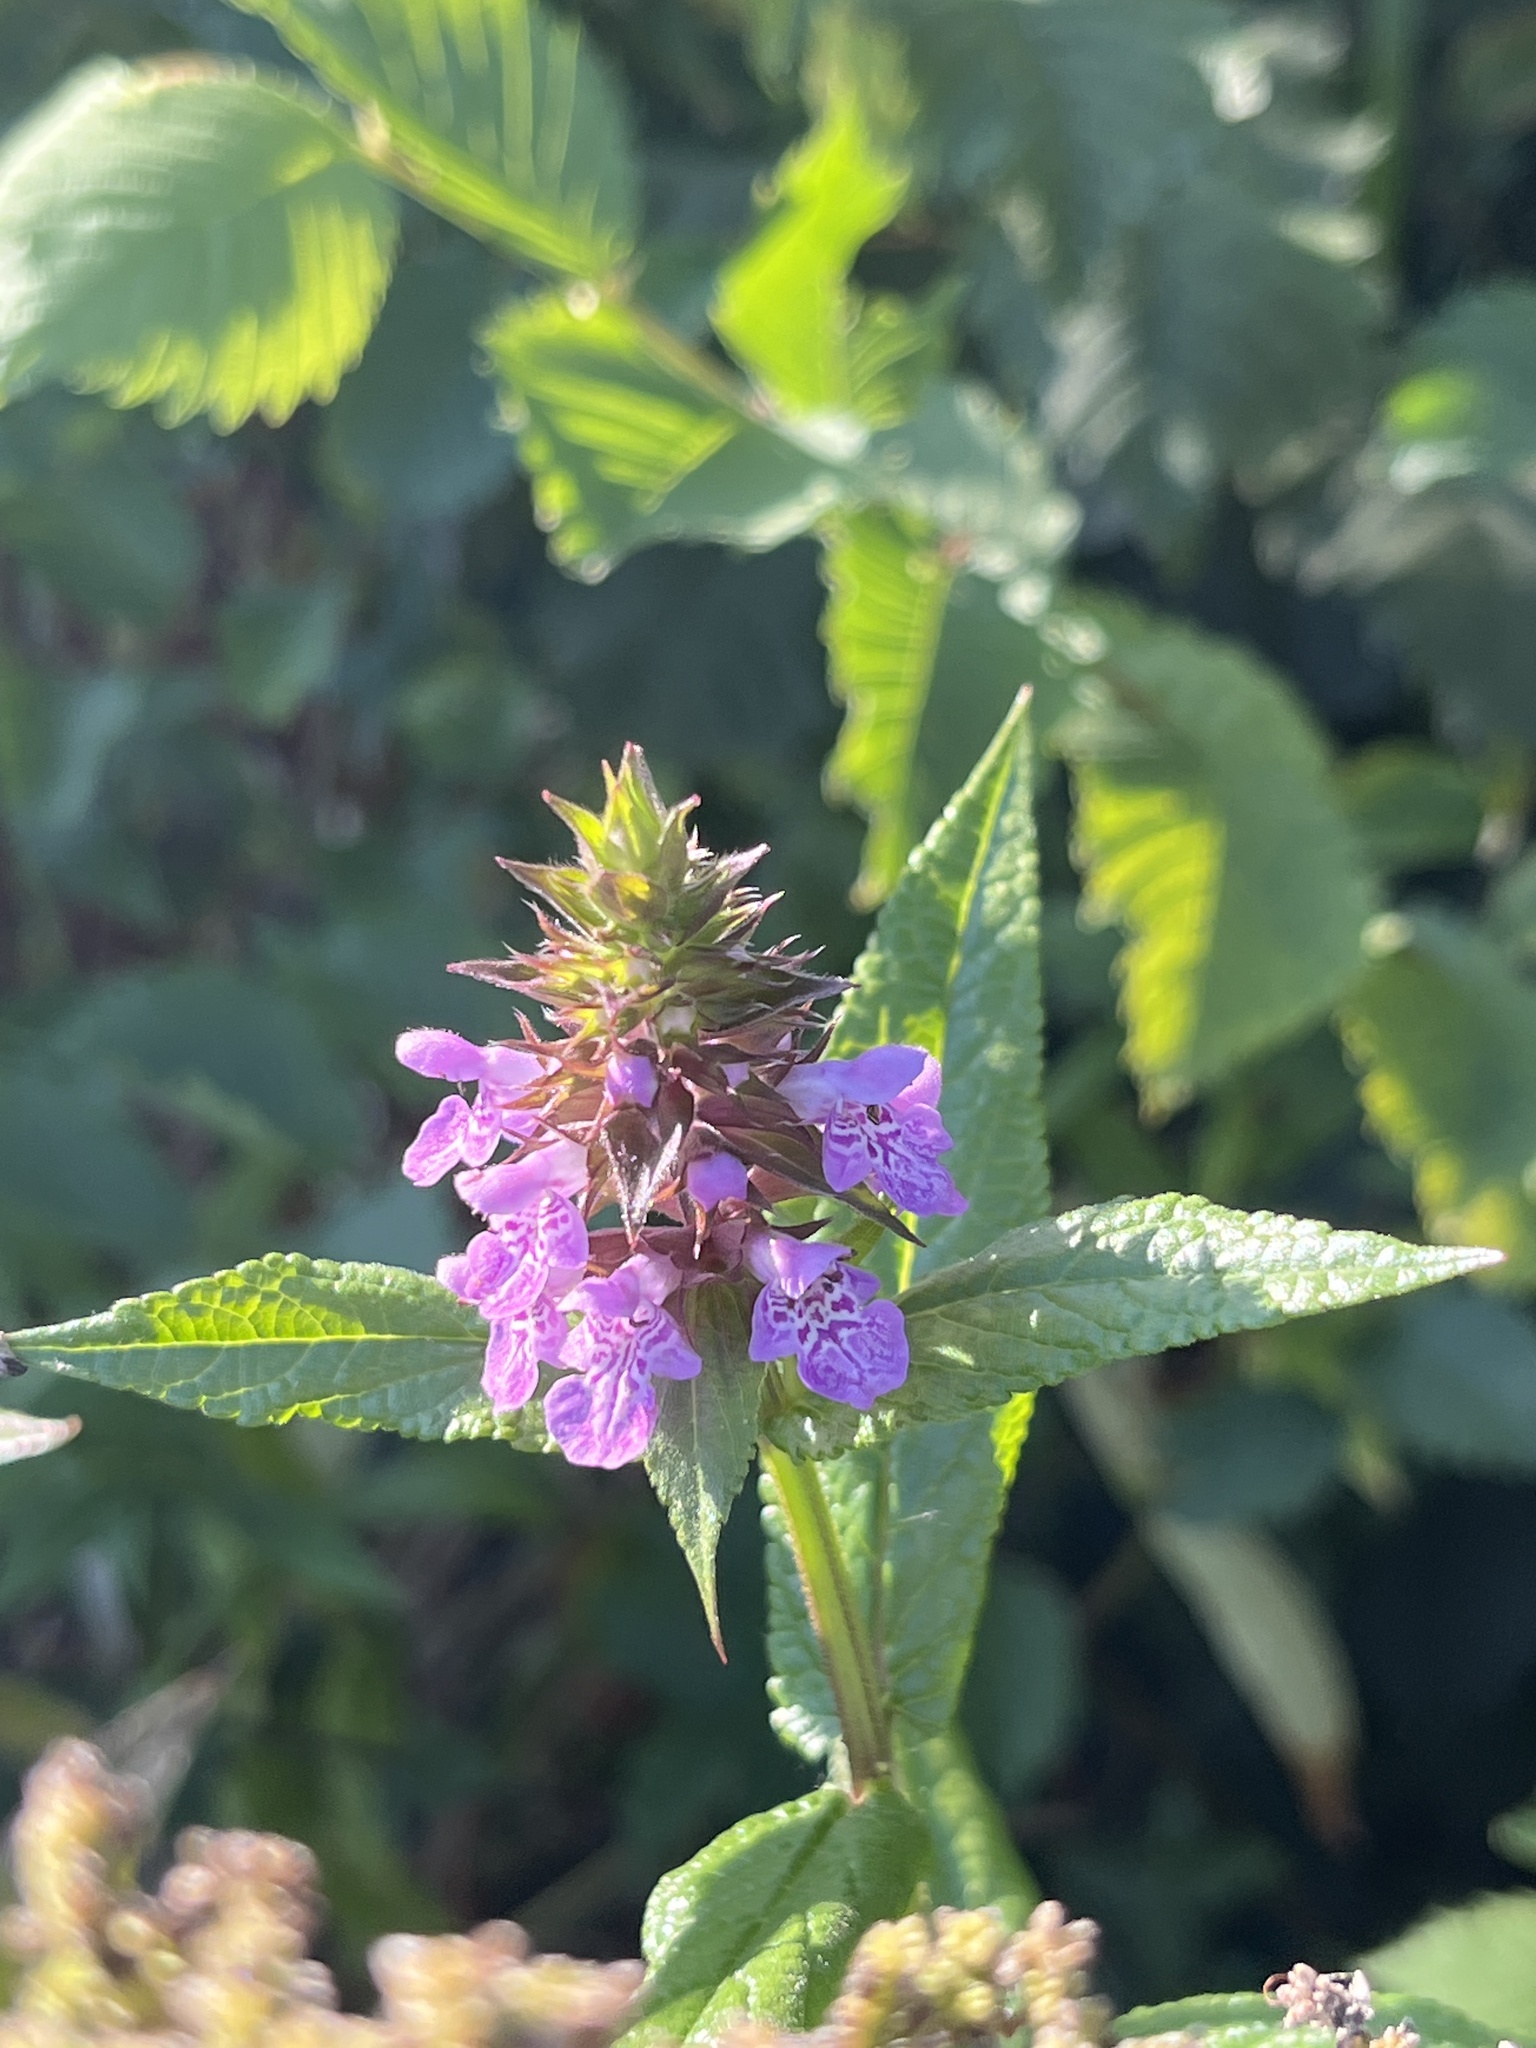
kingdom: Plantae
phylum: Tracheophyta
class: Magnoliopsida
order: Lamiales
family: Lamiaceae
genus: Stachys
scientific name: Stachys palustris
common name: Marsh woundwort
